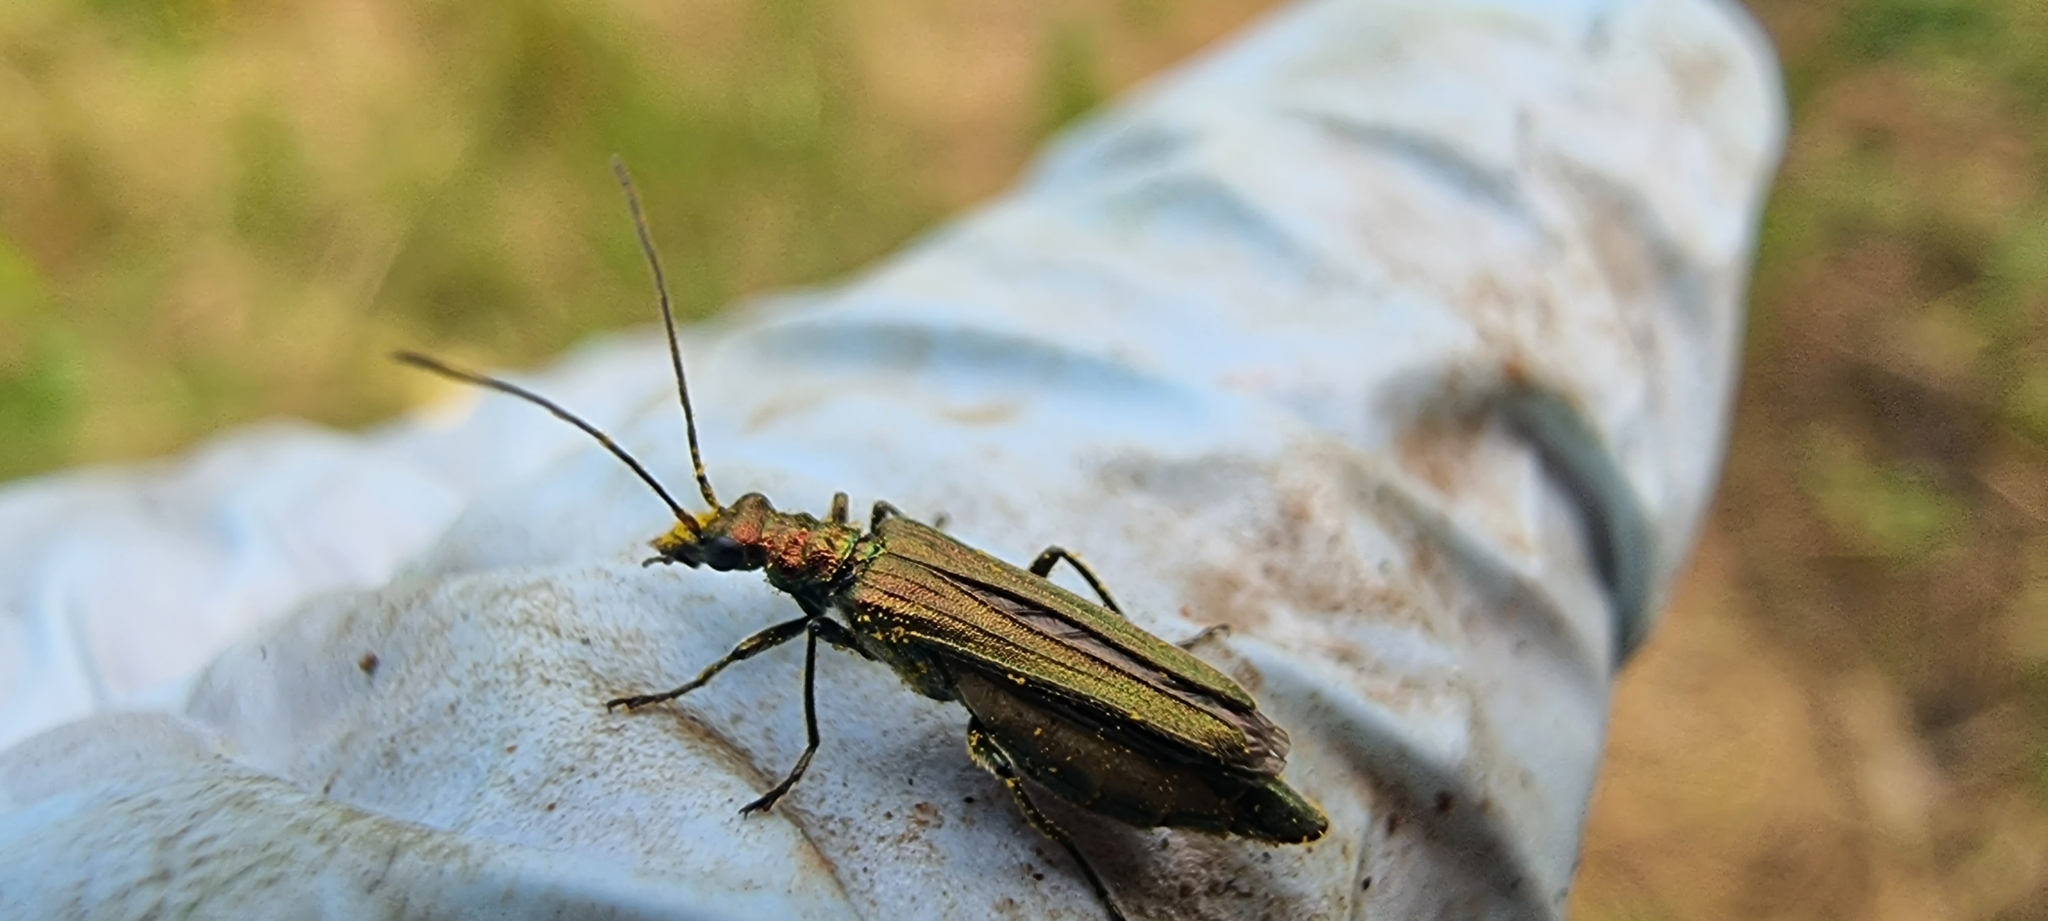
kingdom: Animalia
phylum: Arthropoda
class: Insecta
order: Coleoptera
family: Oedemeridae
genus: Oedemera
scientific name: Oedemera nobilis
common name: Swollen-thighed beetle
